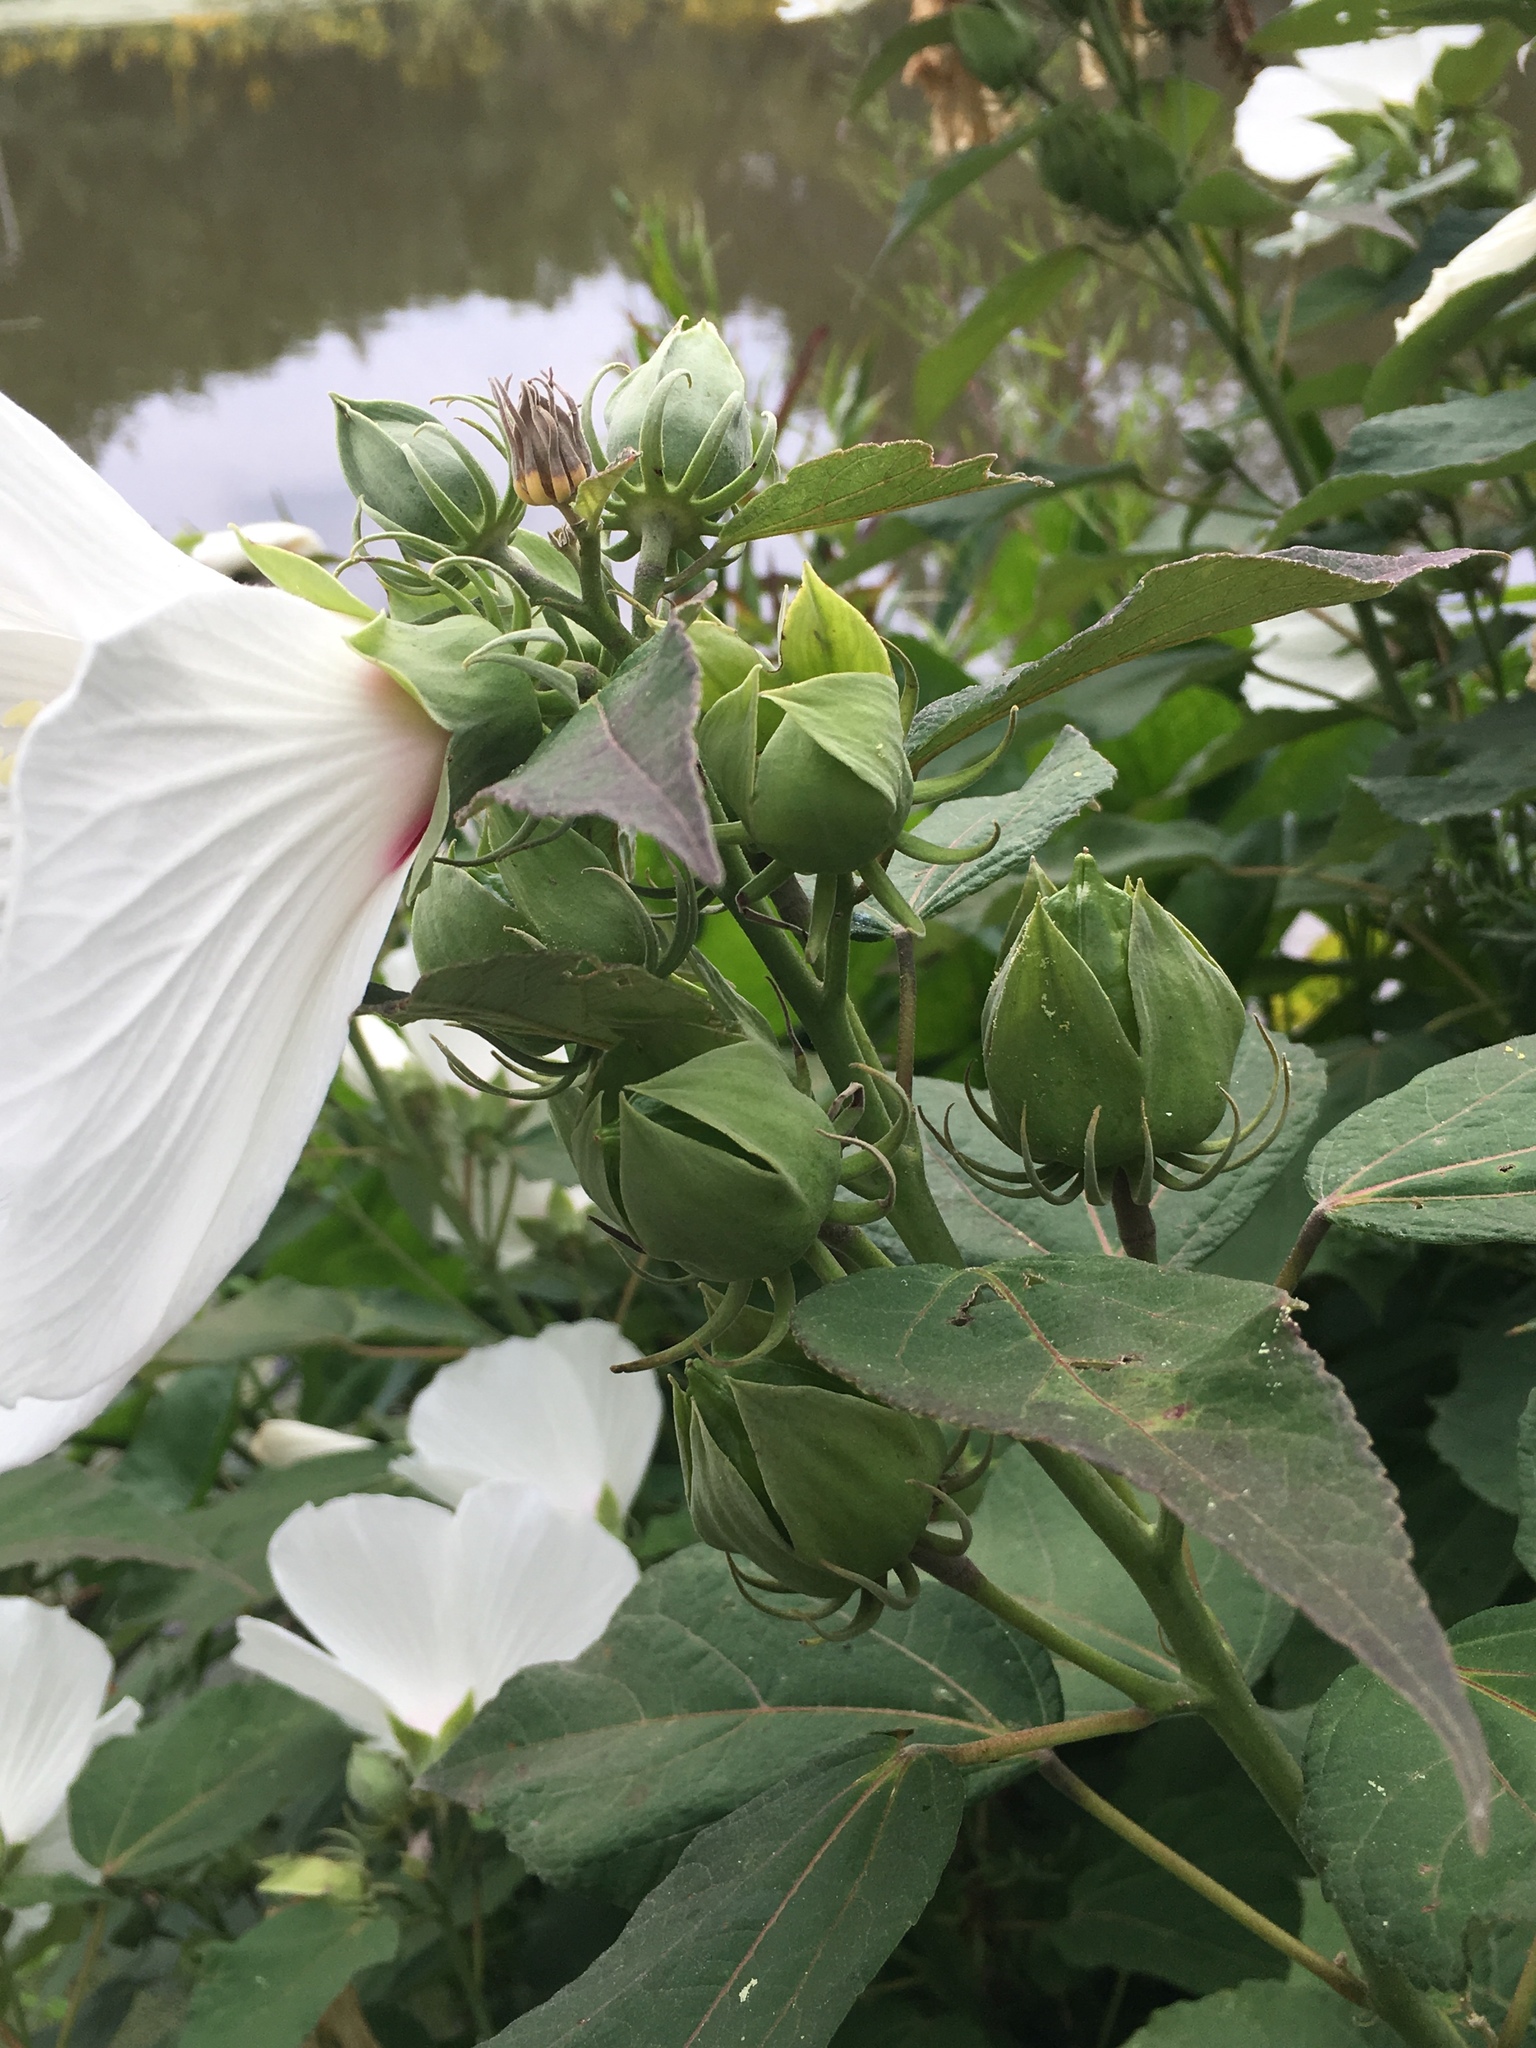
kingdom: Plantae
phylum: Tracheophyta
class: Magnoliopsida
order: Malvales
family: Malvaceae
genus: Hibiscus
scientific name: Hibiscus moscheutos
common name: Common rose-mallow
